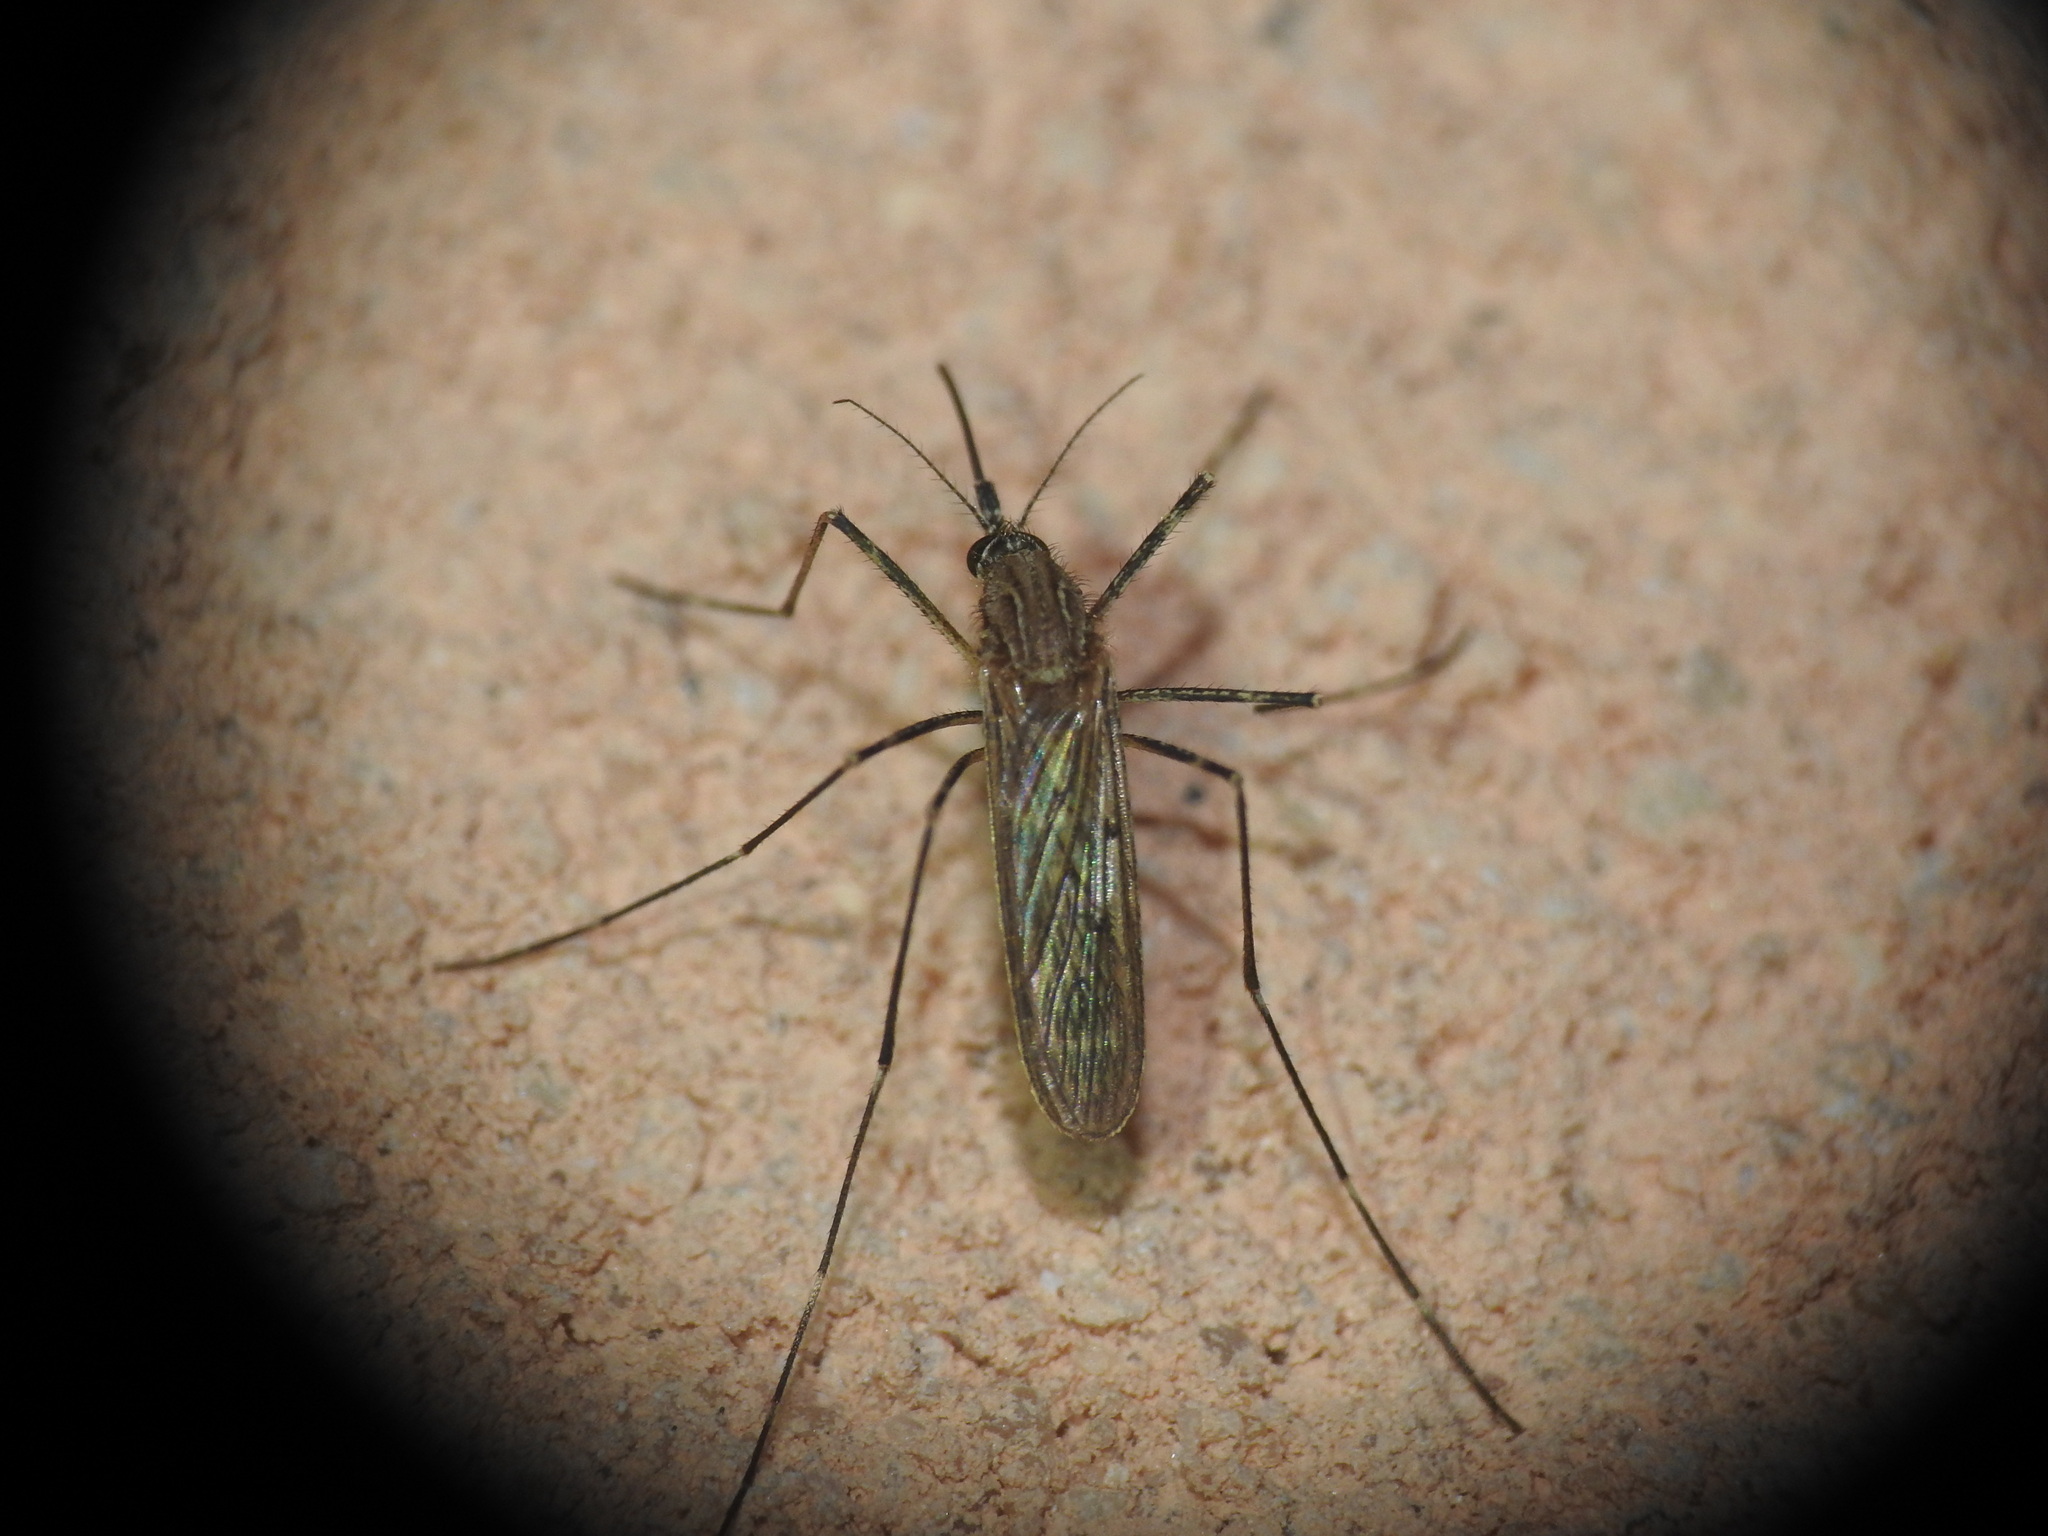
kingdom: Animalia
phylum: Arthropoda
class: Insecta
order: Diptera
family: Culicidae
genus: Culiseta
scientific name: Culiseta longiareolata
